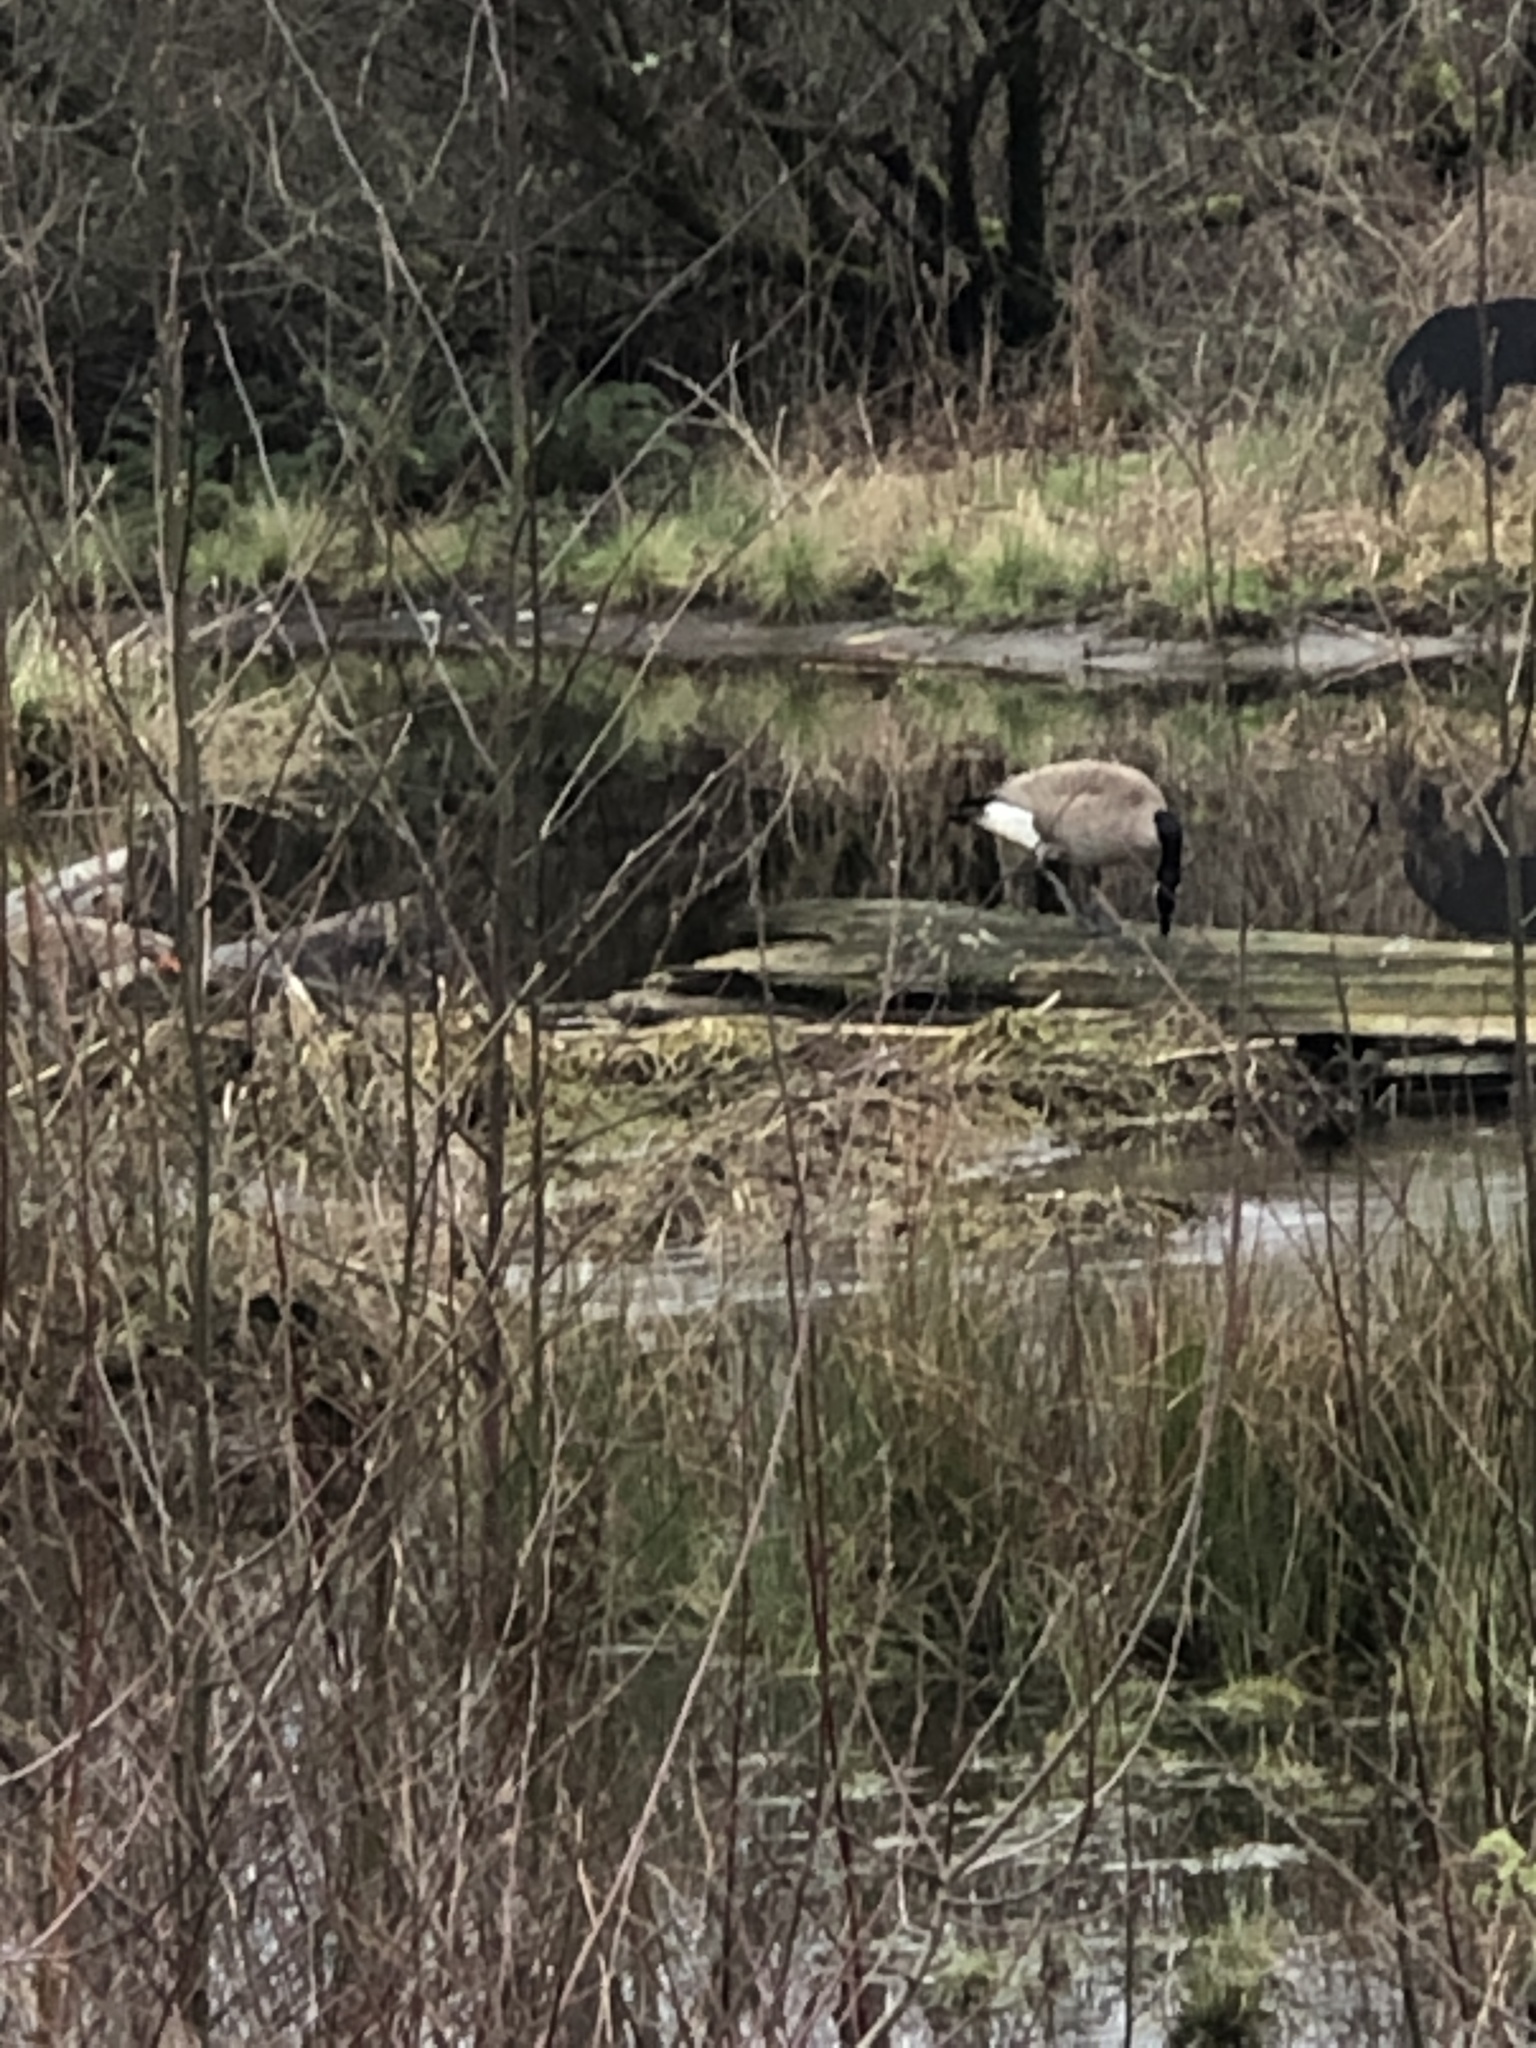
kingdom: Animalia
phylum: Chordata
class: Aves
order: Anseriformes
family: Anatidae
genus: Branta
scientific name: Branta canadensis
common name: Canada goose
